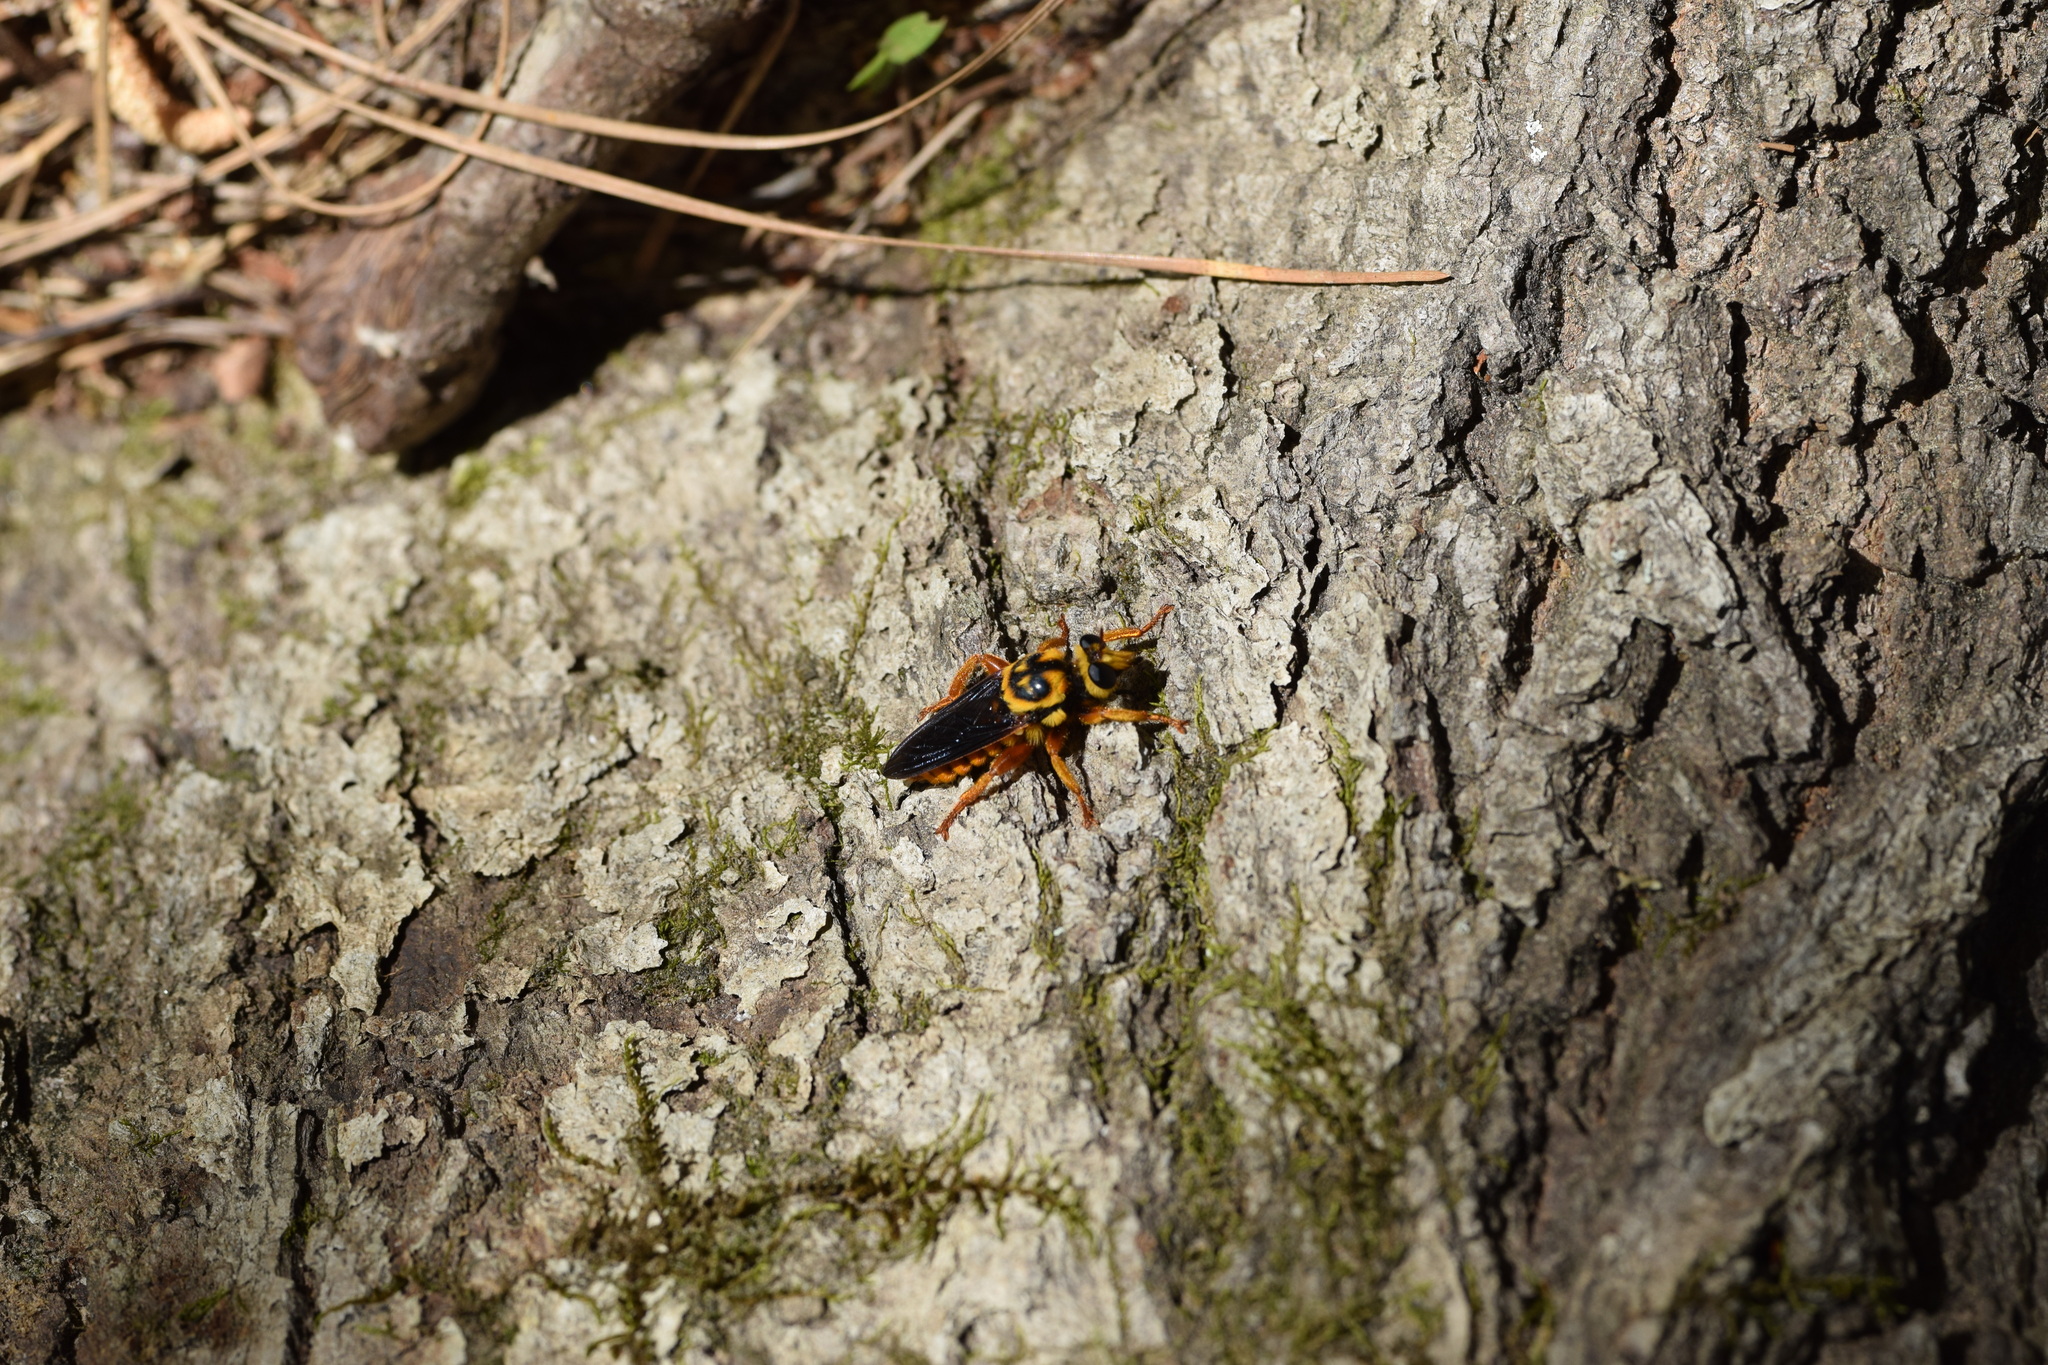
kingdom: Animalia
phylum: Arthropoda
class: Insecta
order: Diptera
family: Asilidae
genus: Laphria
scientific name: Laphria saffrana
